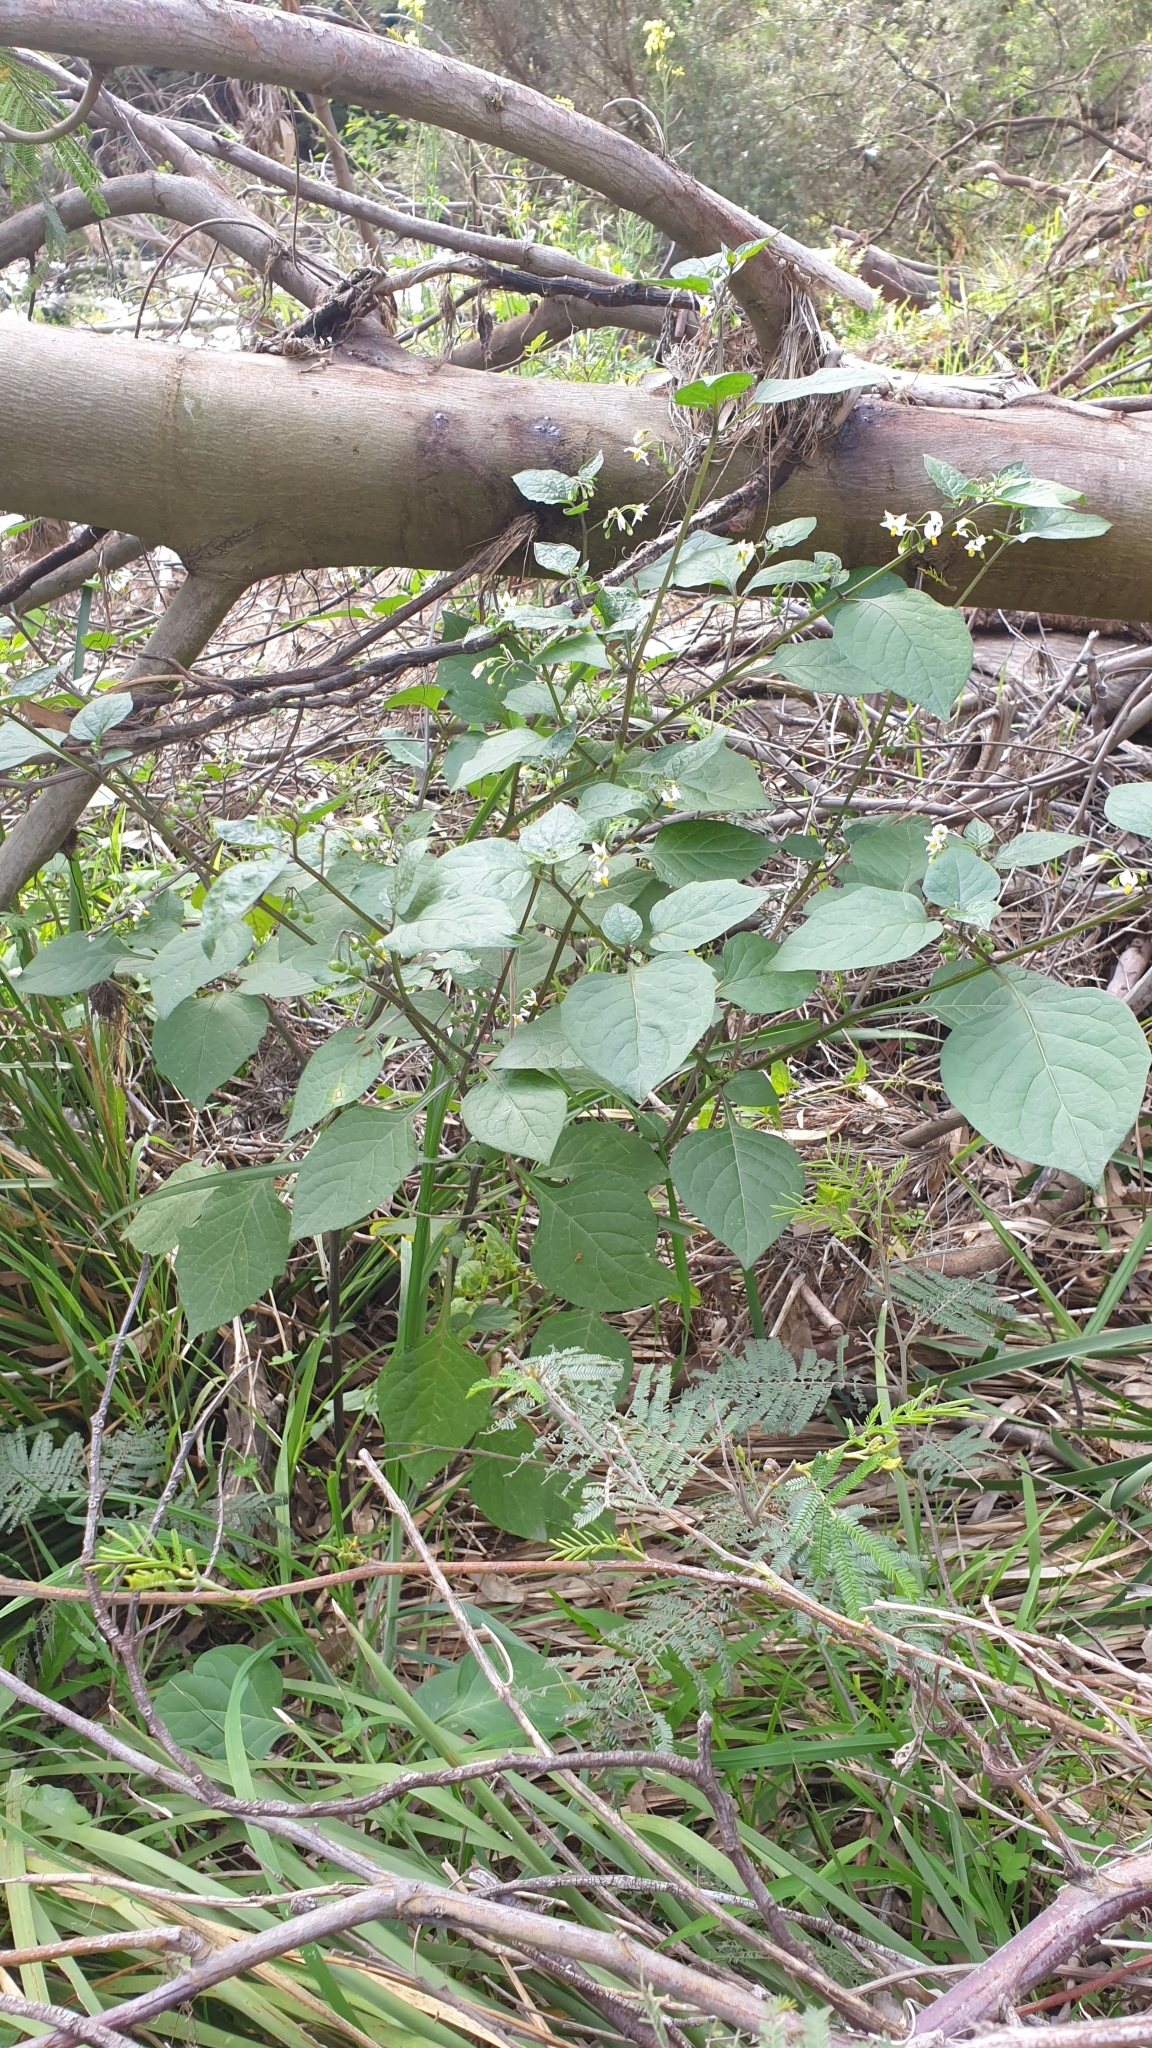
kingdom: Plantae
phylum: Tracheophyta
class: Magnoliopsida
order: Solanales
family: Solanaceae
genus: Solanum
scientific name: Solanum nigrum
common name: Black nightshade
